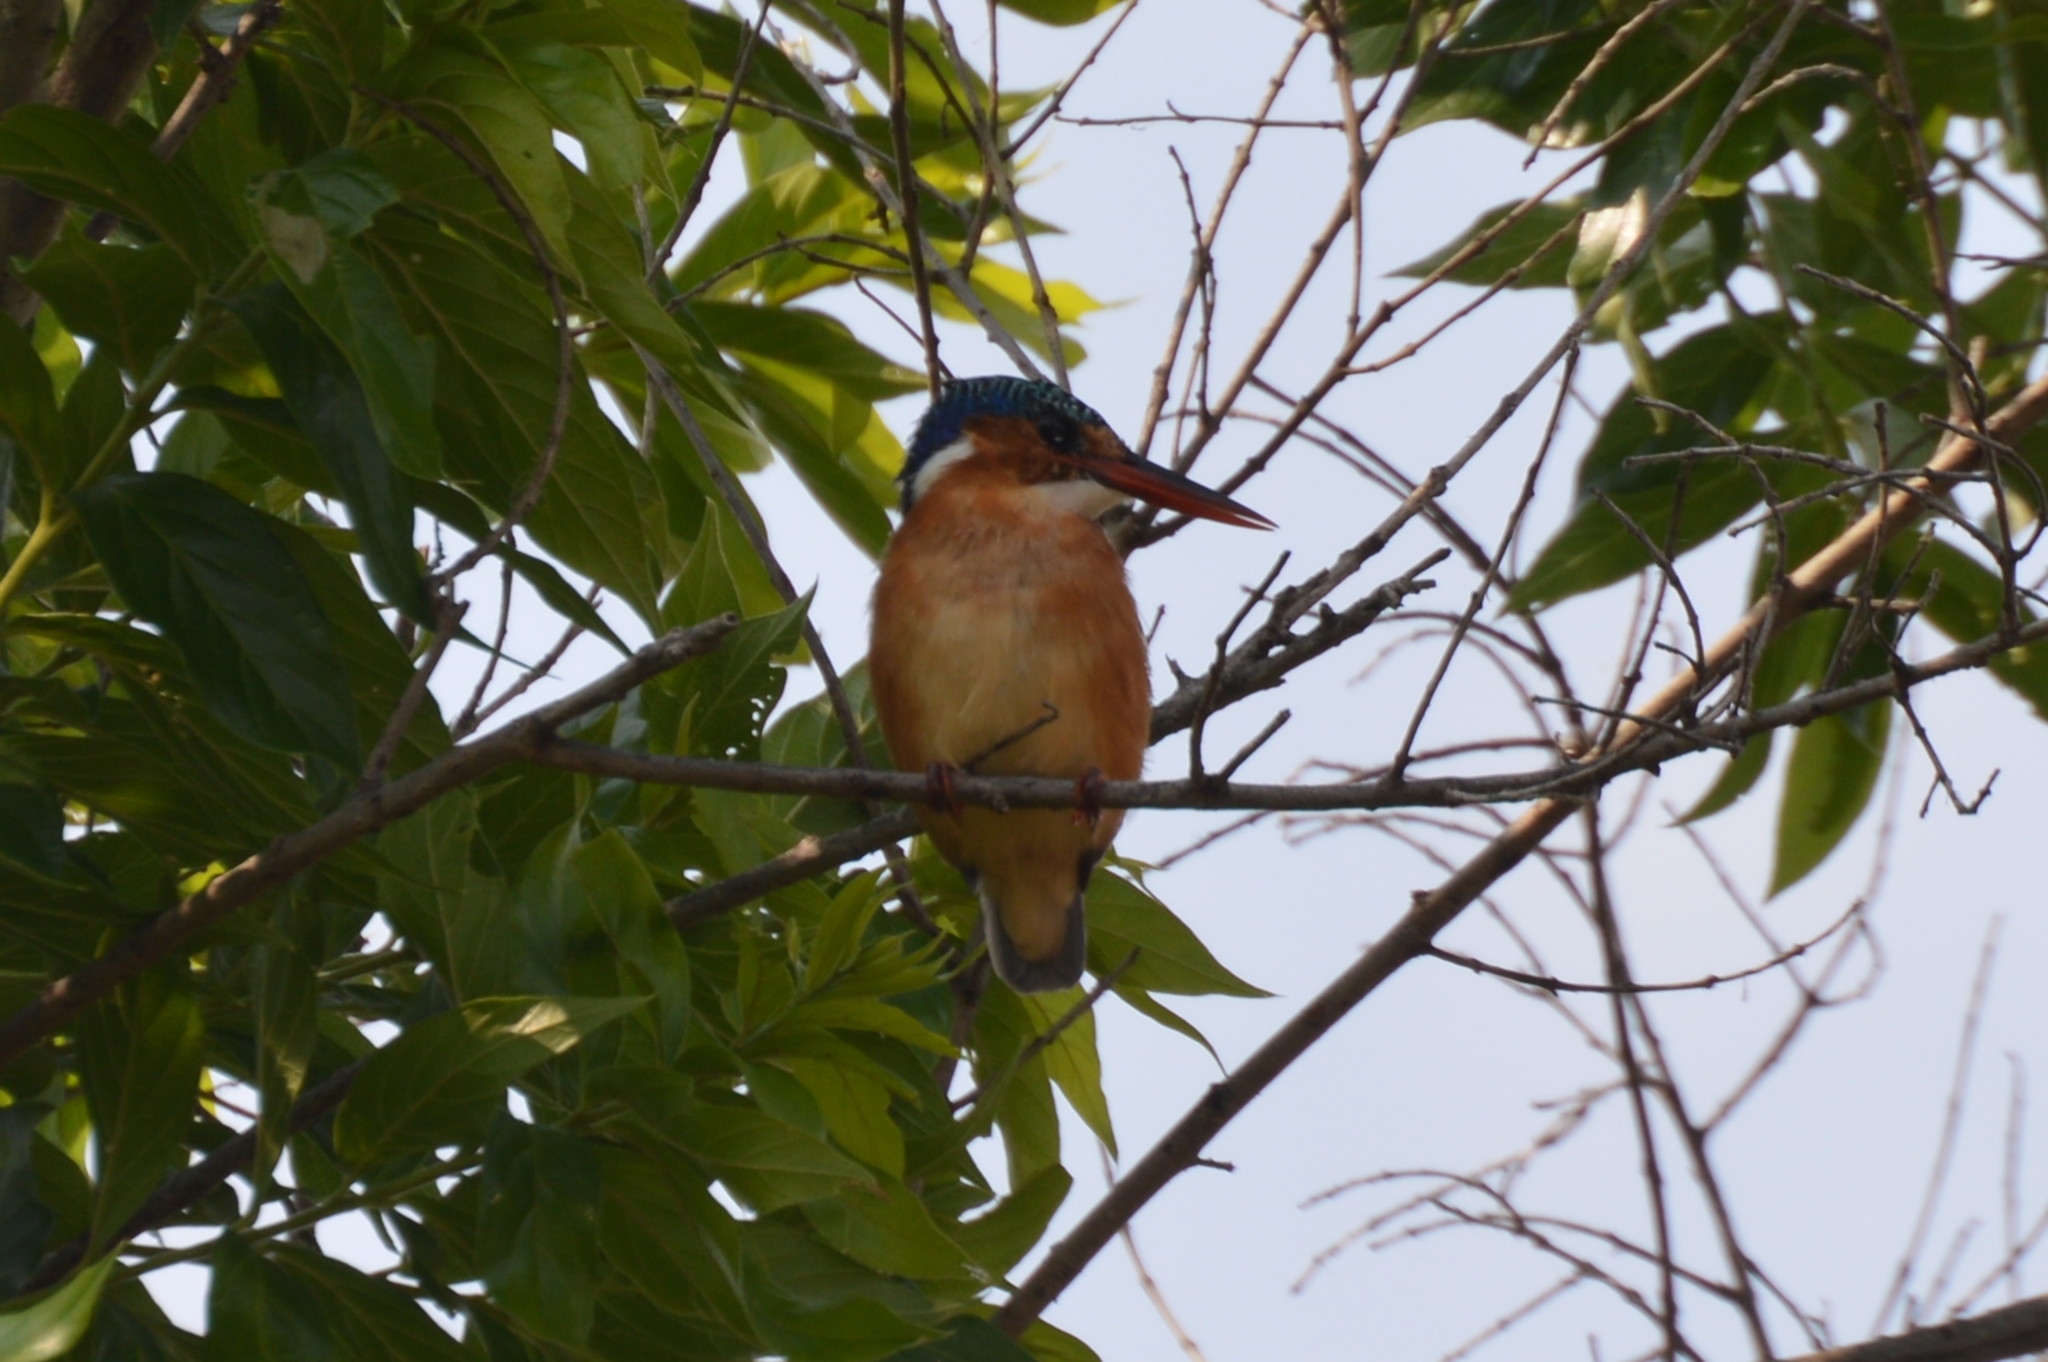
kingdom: Animalia
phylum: Chordata
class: Aves
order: Coraciiformes
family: Alcedinidae
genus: Corythornis
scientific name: Corythornis cristatus
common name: Malachite kingfisher
